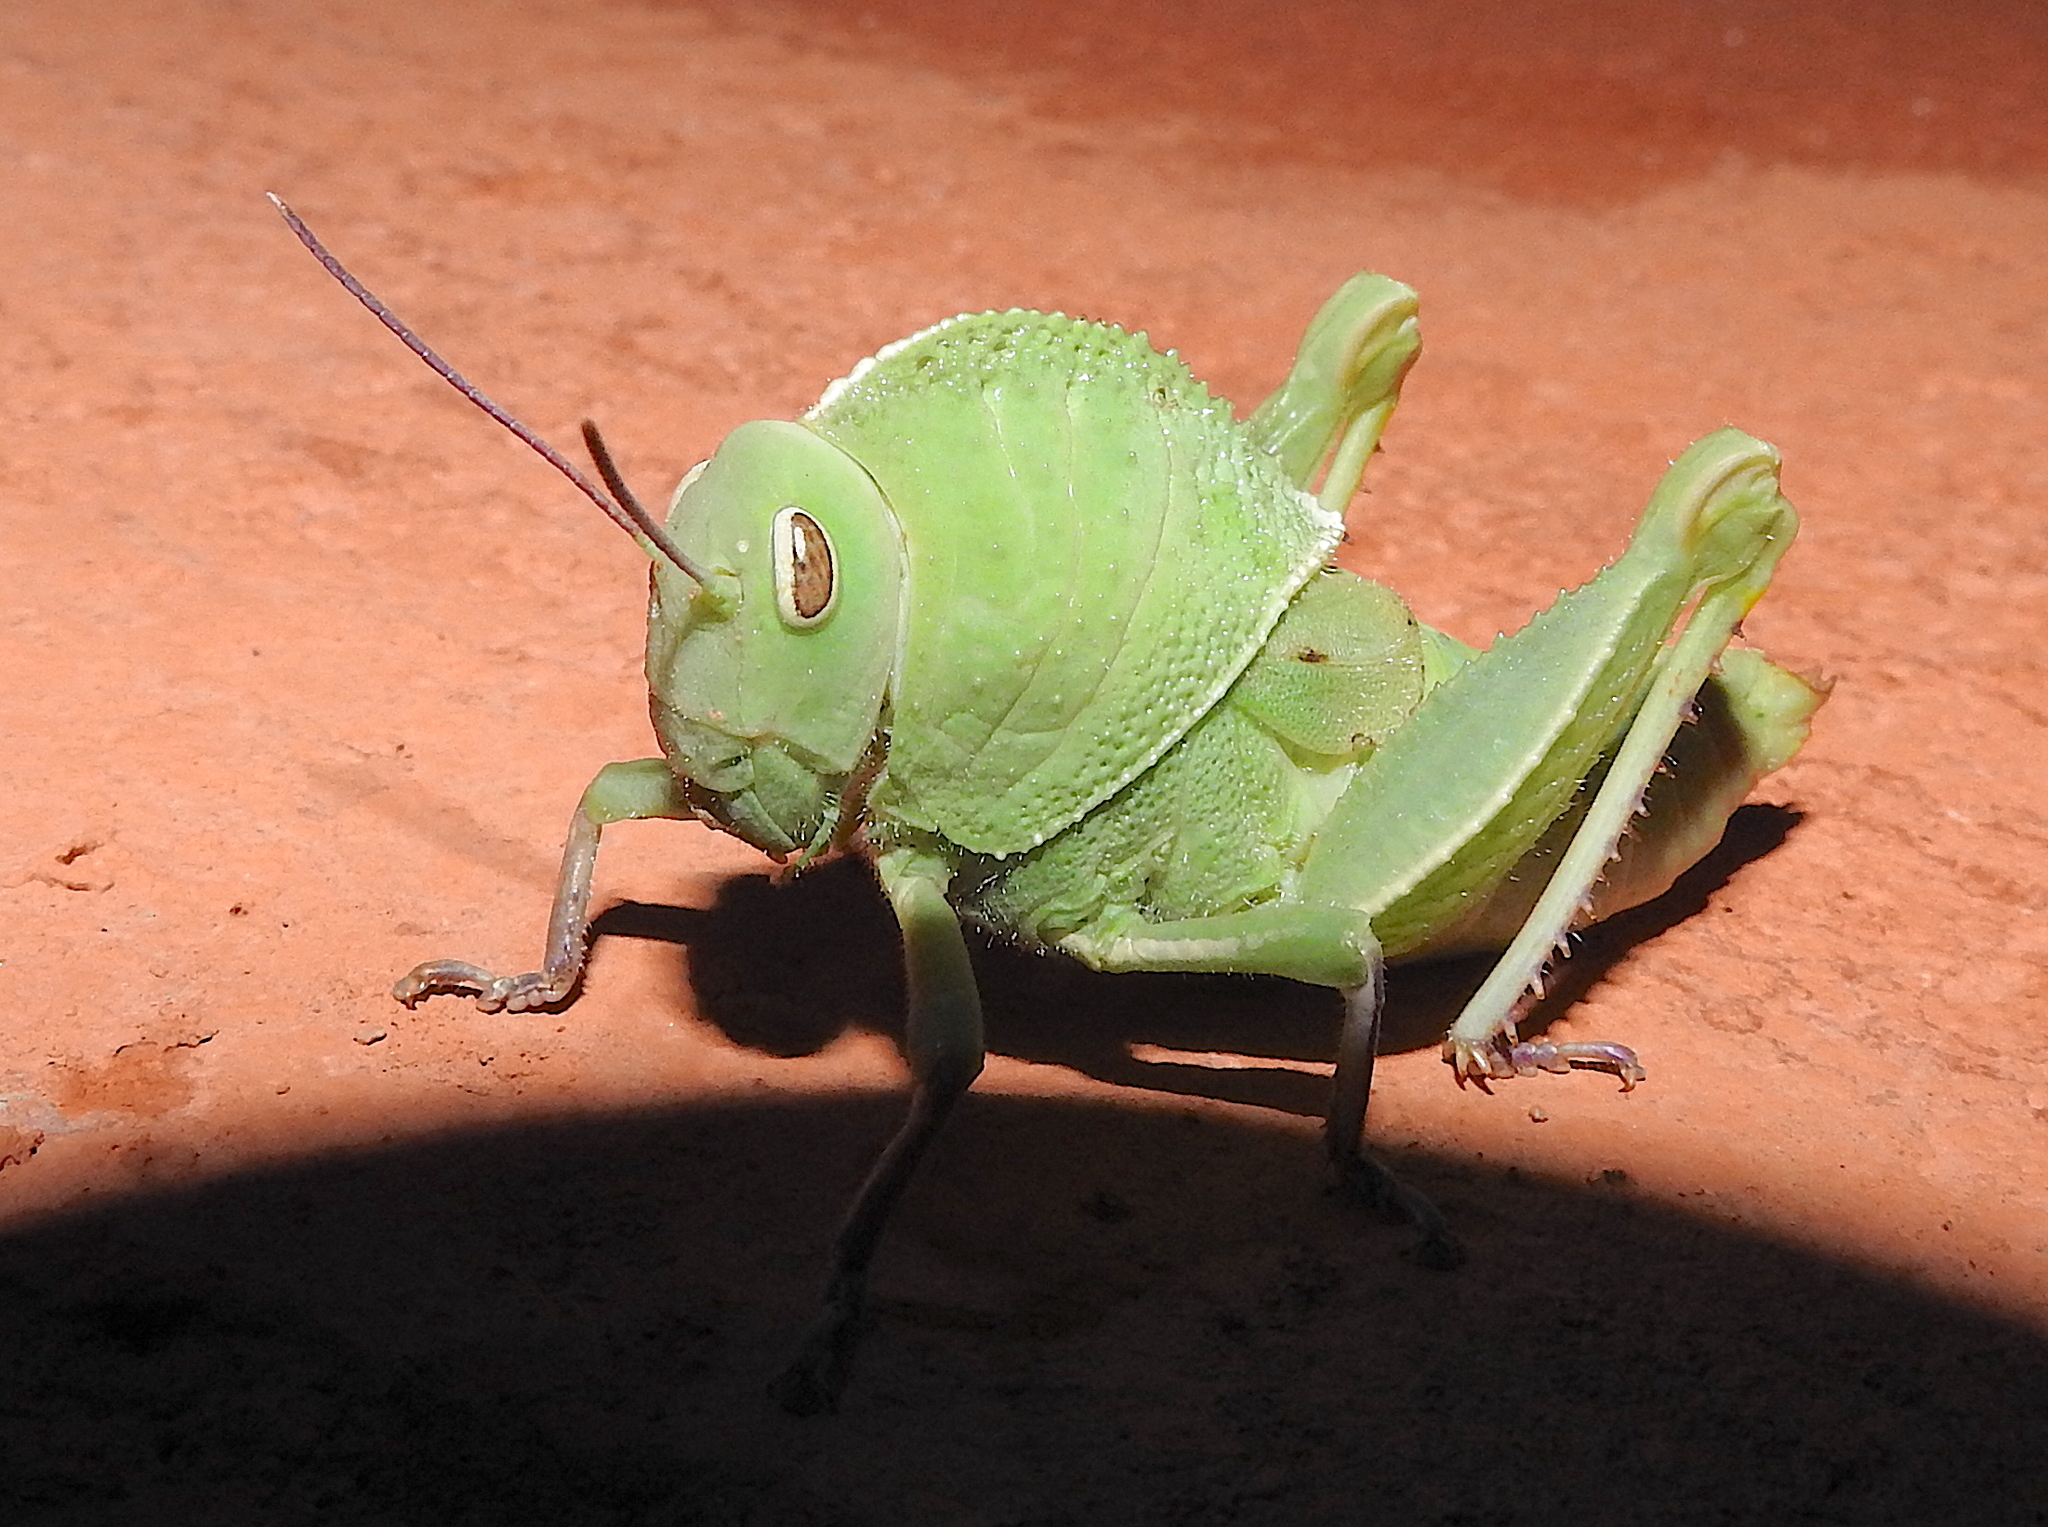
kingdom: Animalia
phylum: Arthropoda
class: Insecta
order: Orthoptera
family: Acrididae
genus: Teratodes
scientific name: Teratodes brachypterus
